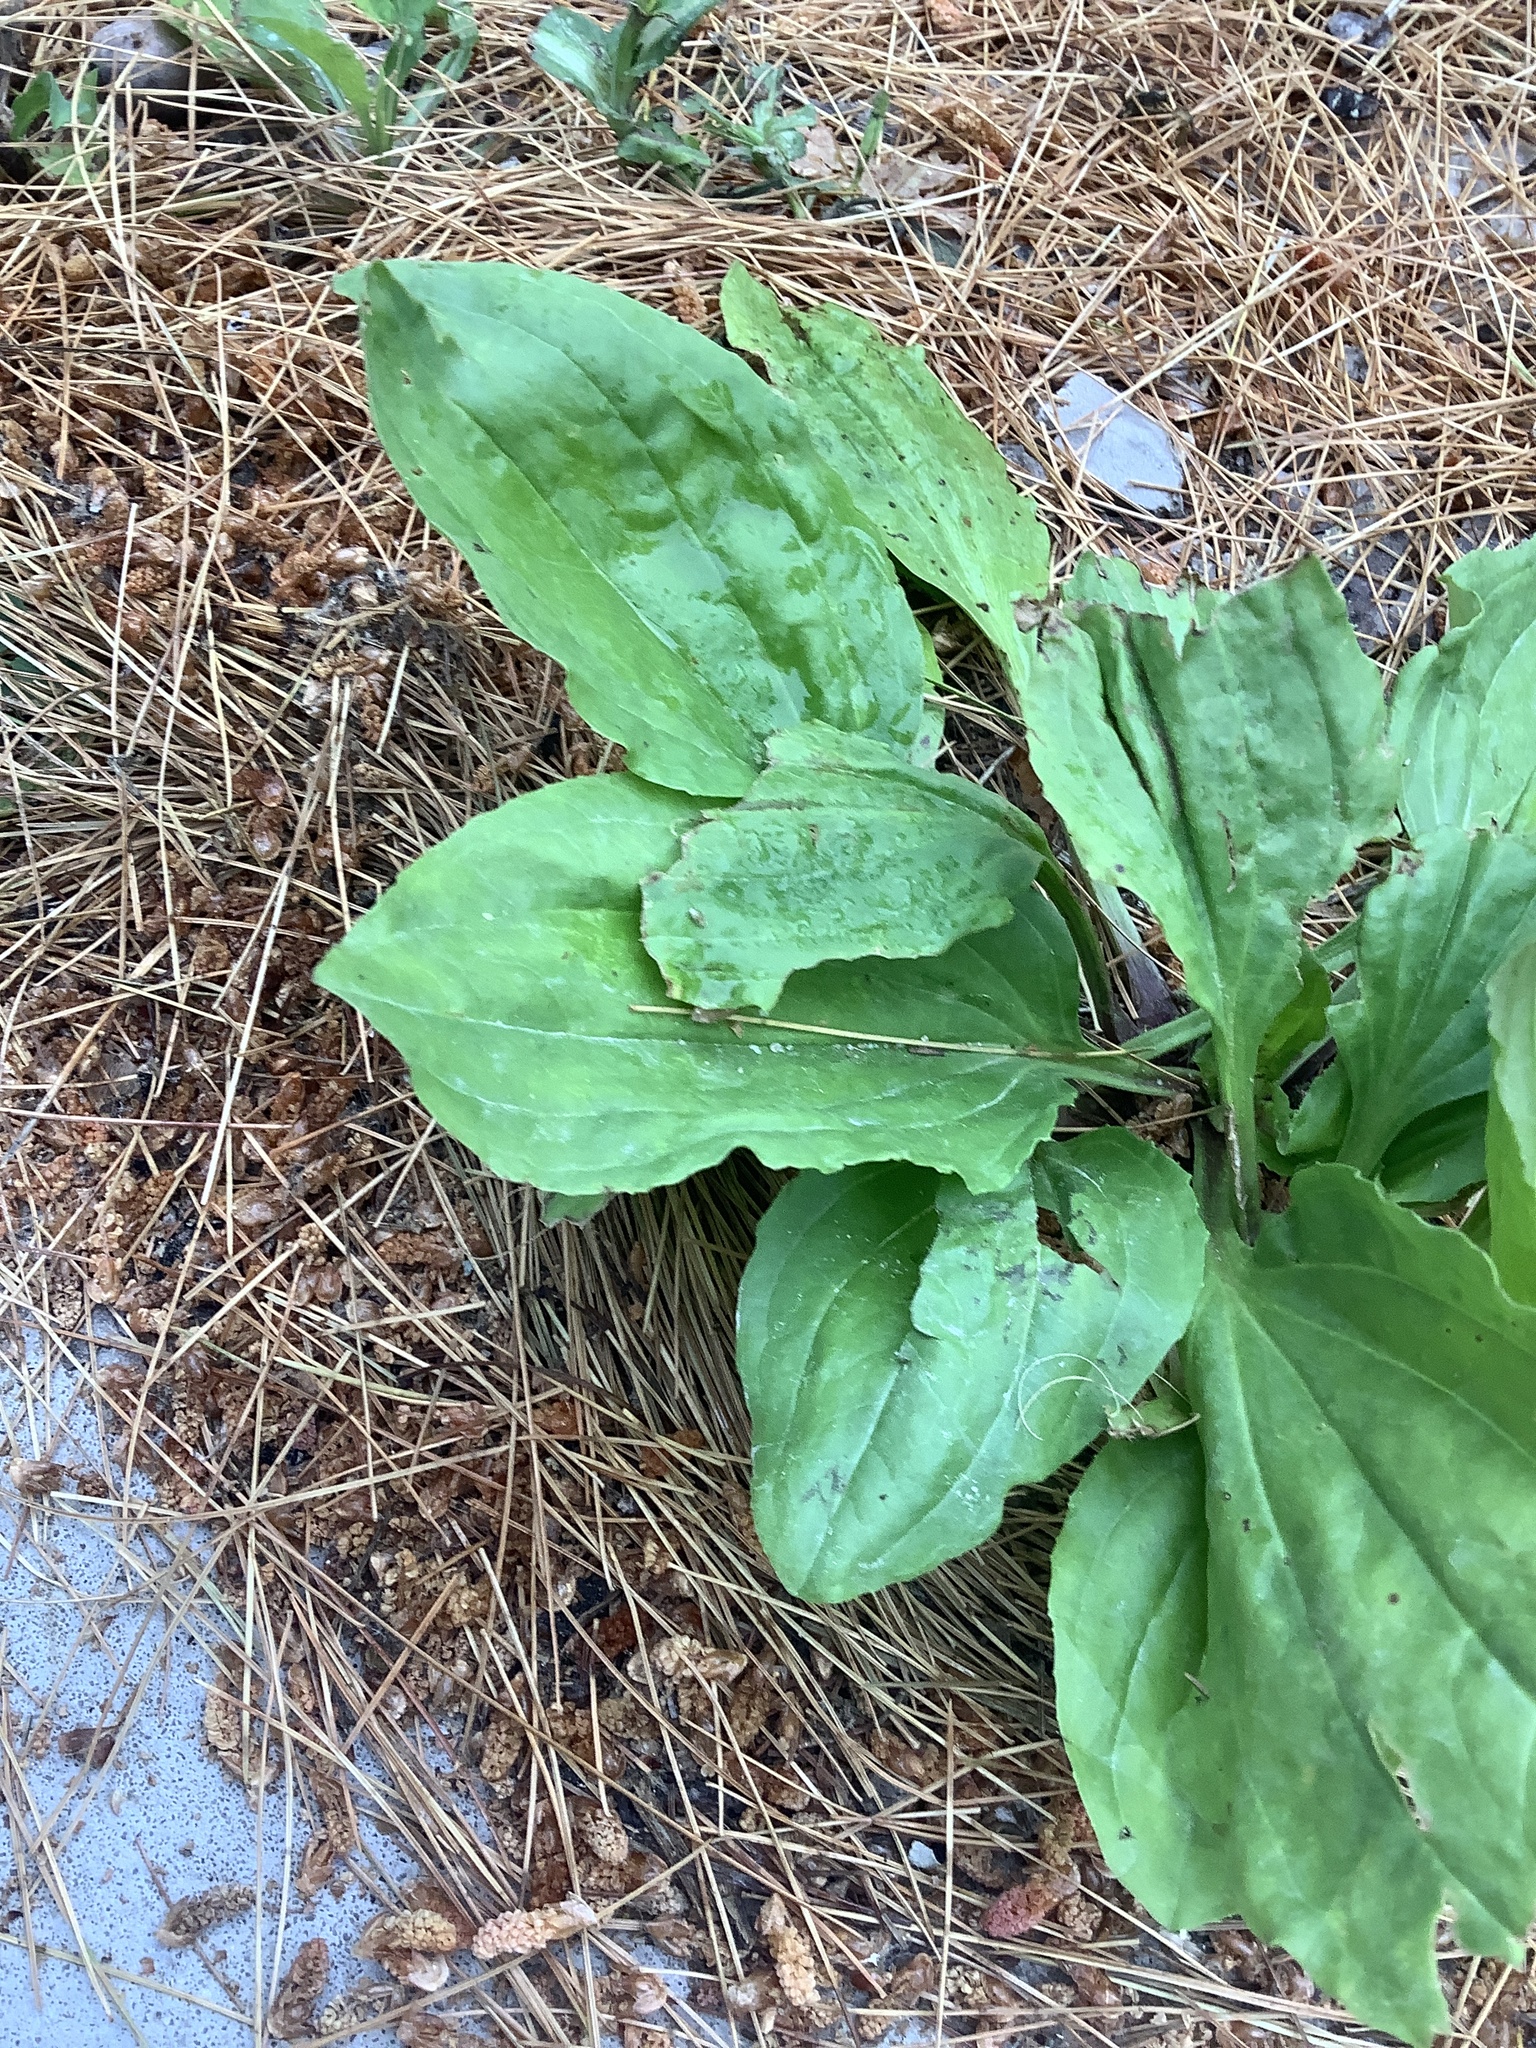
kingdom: Plantae
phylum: Tracheophyta
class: Magnoliopsida
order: Lamiales
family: Plantaginaceae
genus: Plantago
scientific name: Plantago rugelii
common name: American plantain
